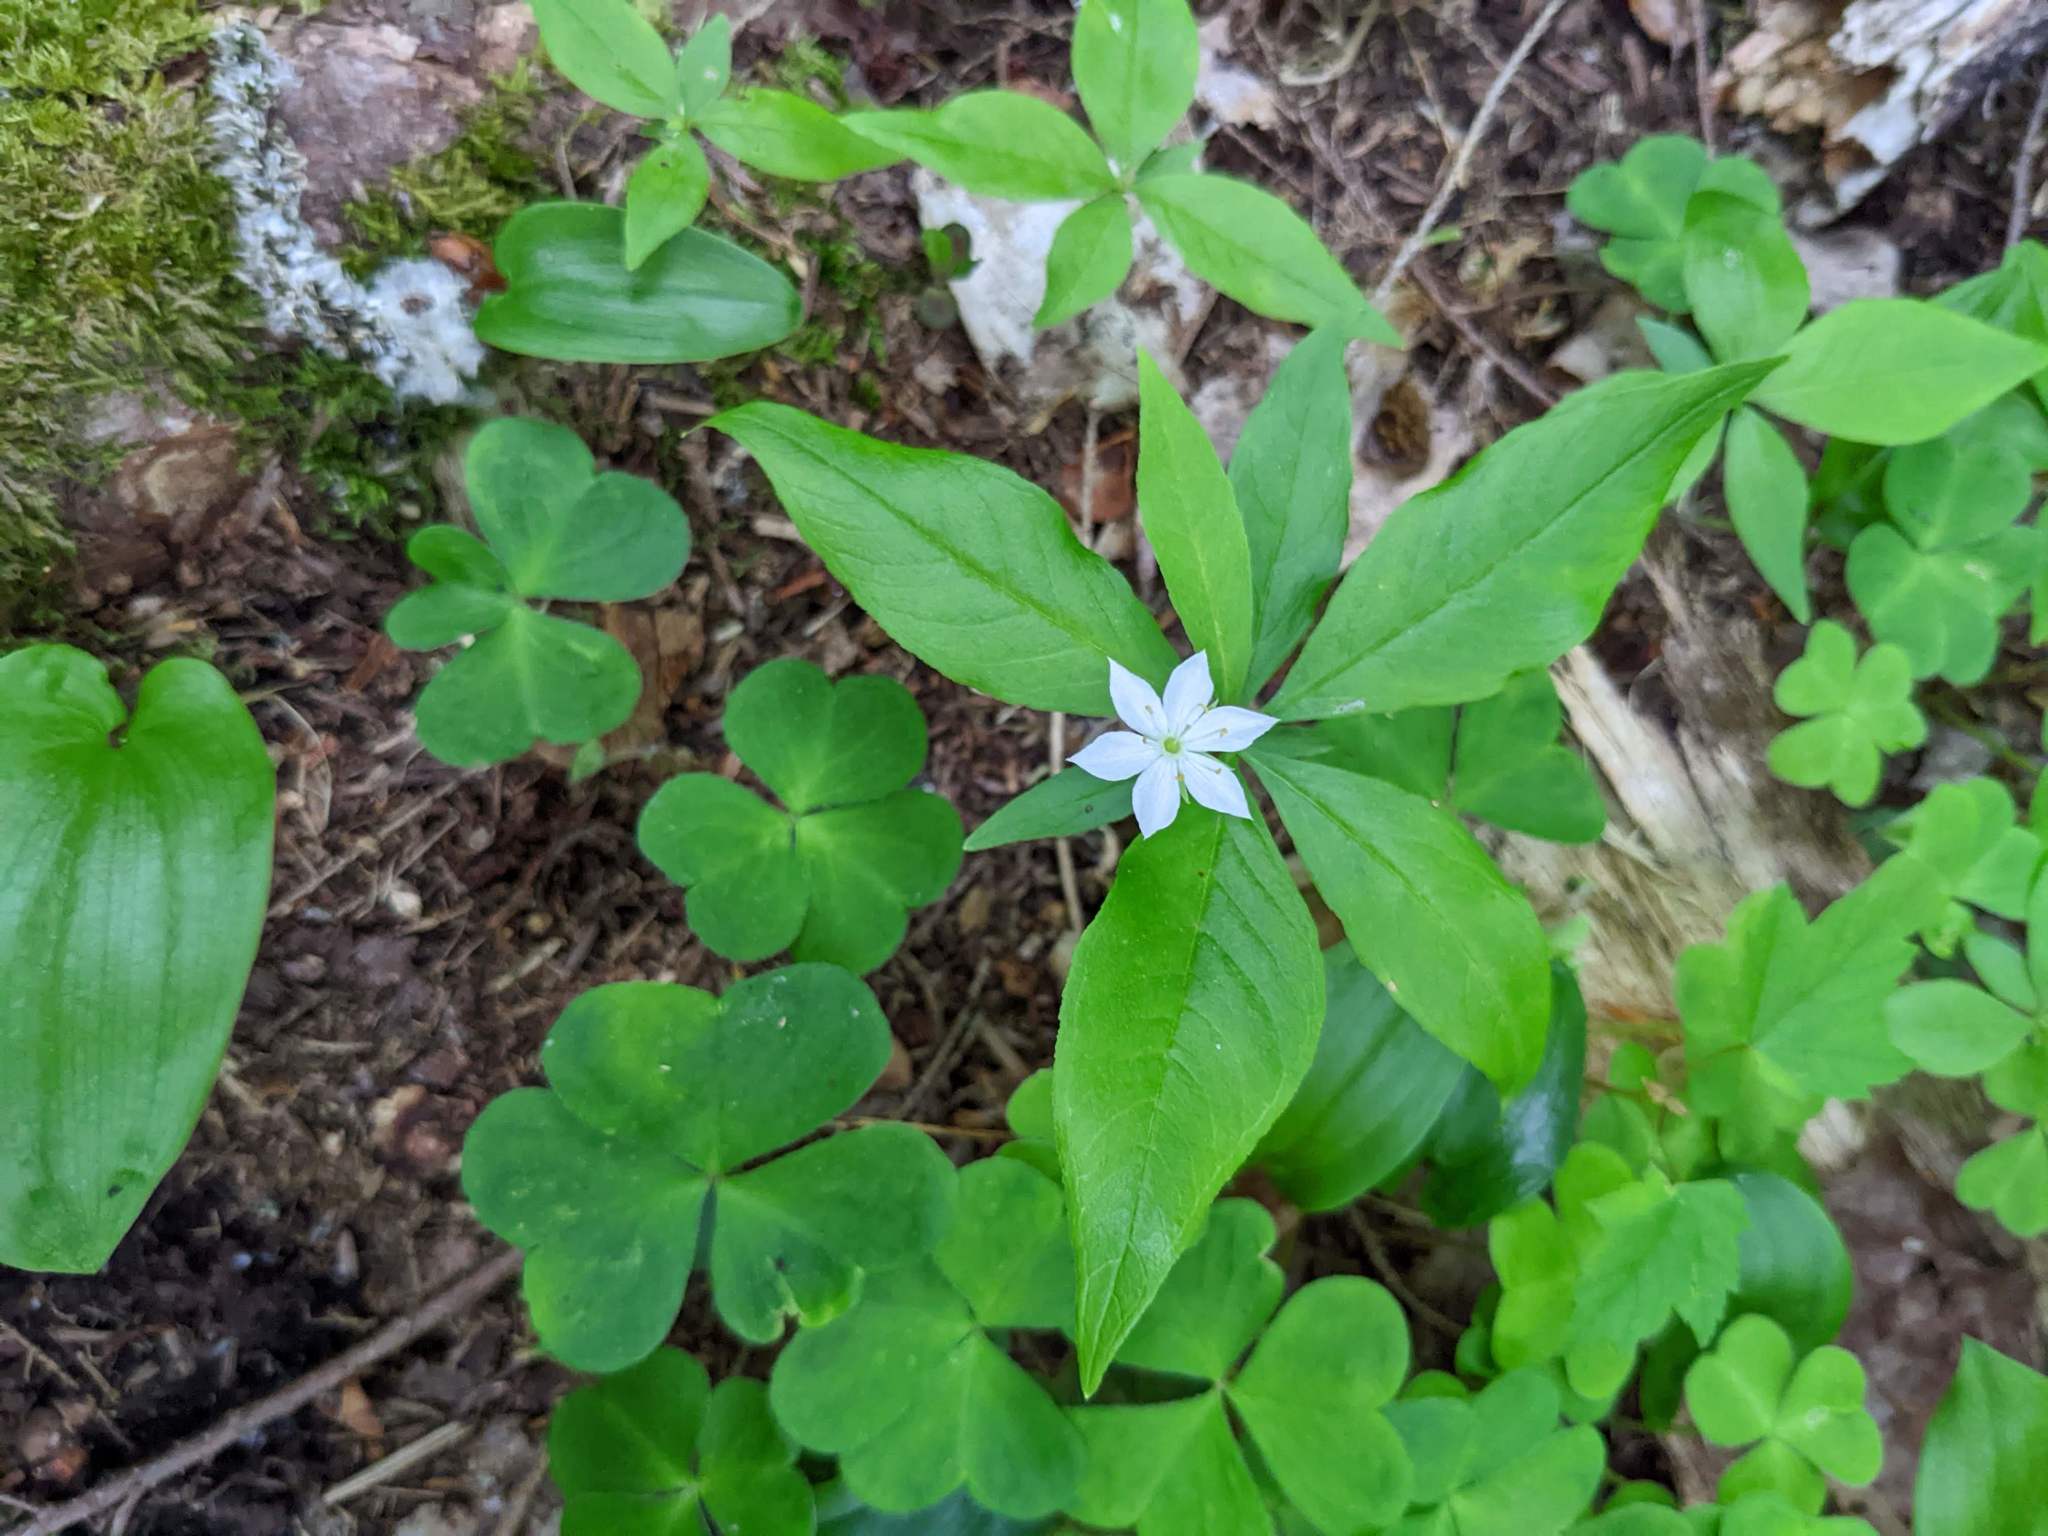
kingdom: Plantae
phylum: Tracheophyta
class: Magnoliopsida
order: Ericales
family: Primulaceae
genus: Lysimachia
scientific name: Lysimachia borealis
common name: American starflower
